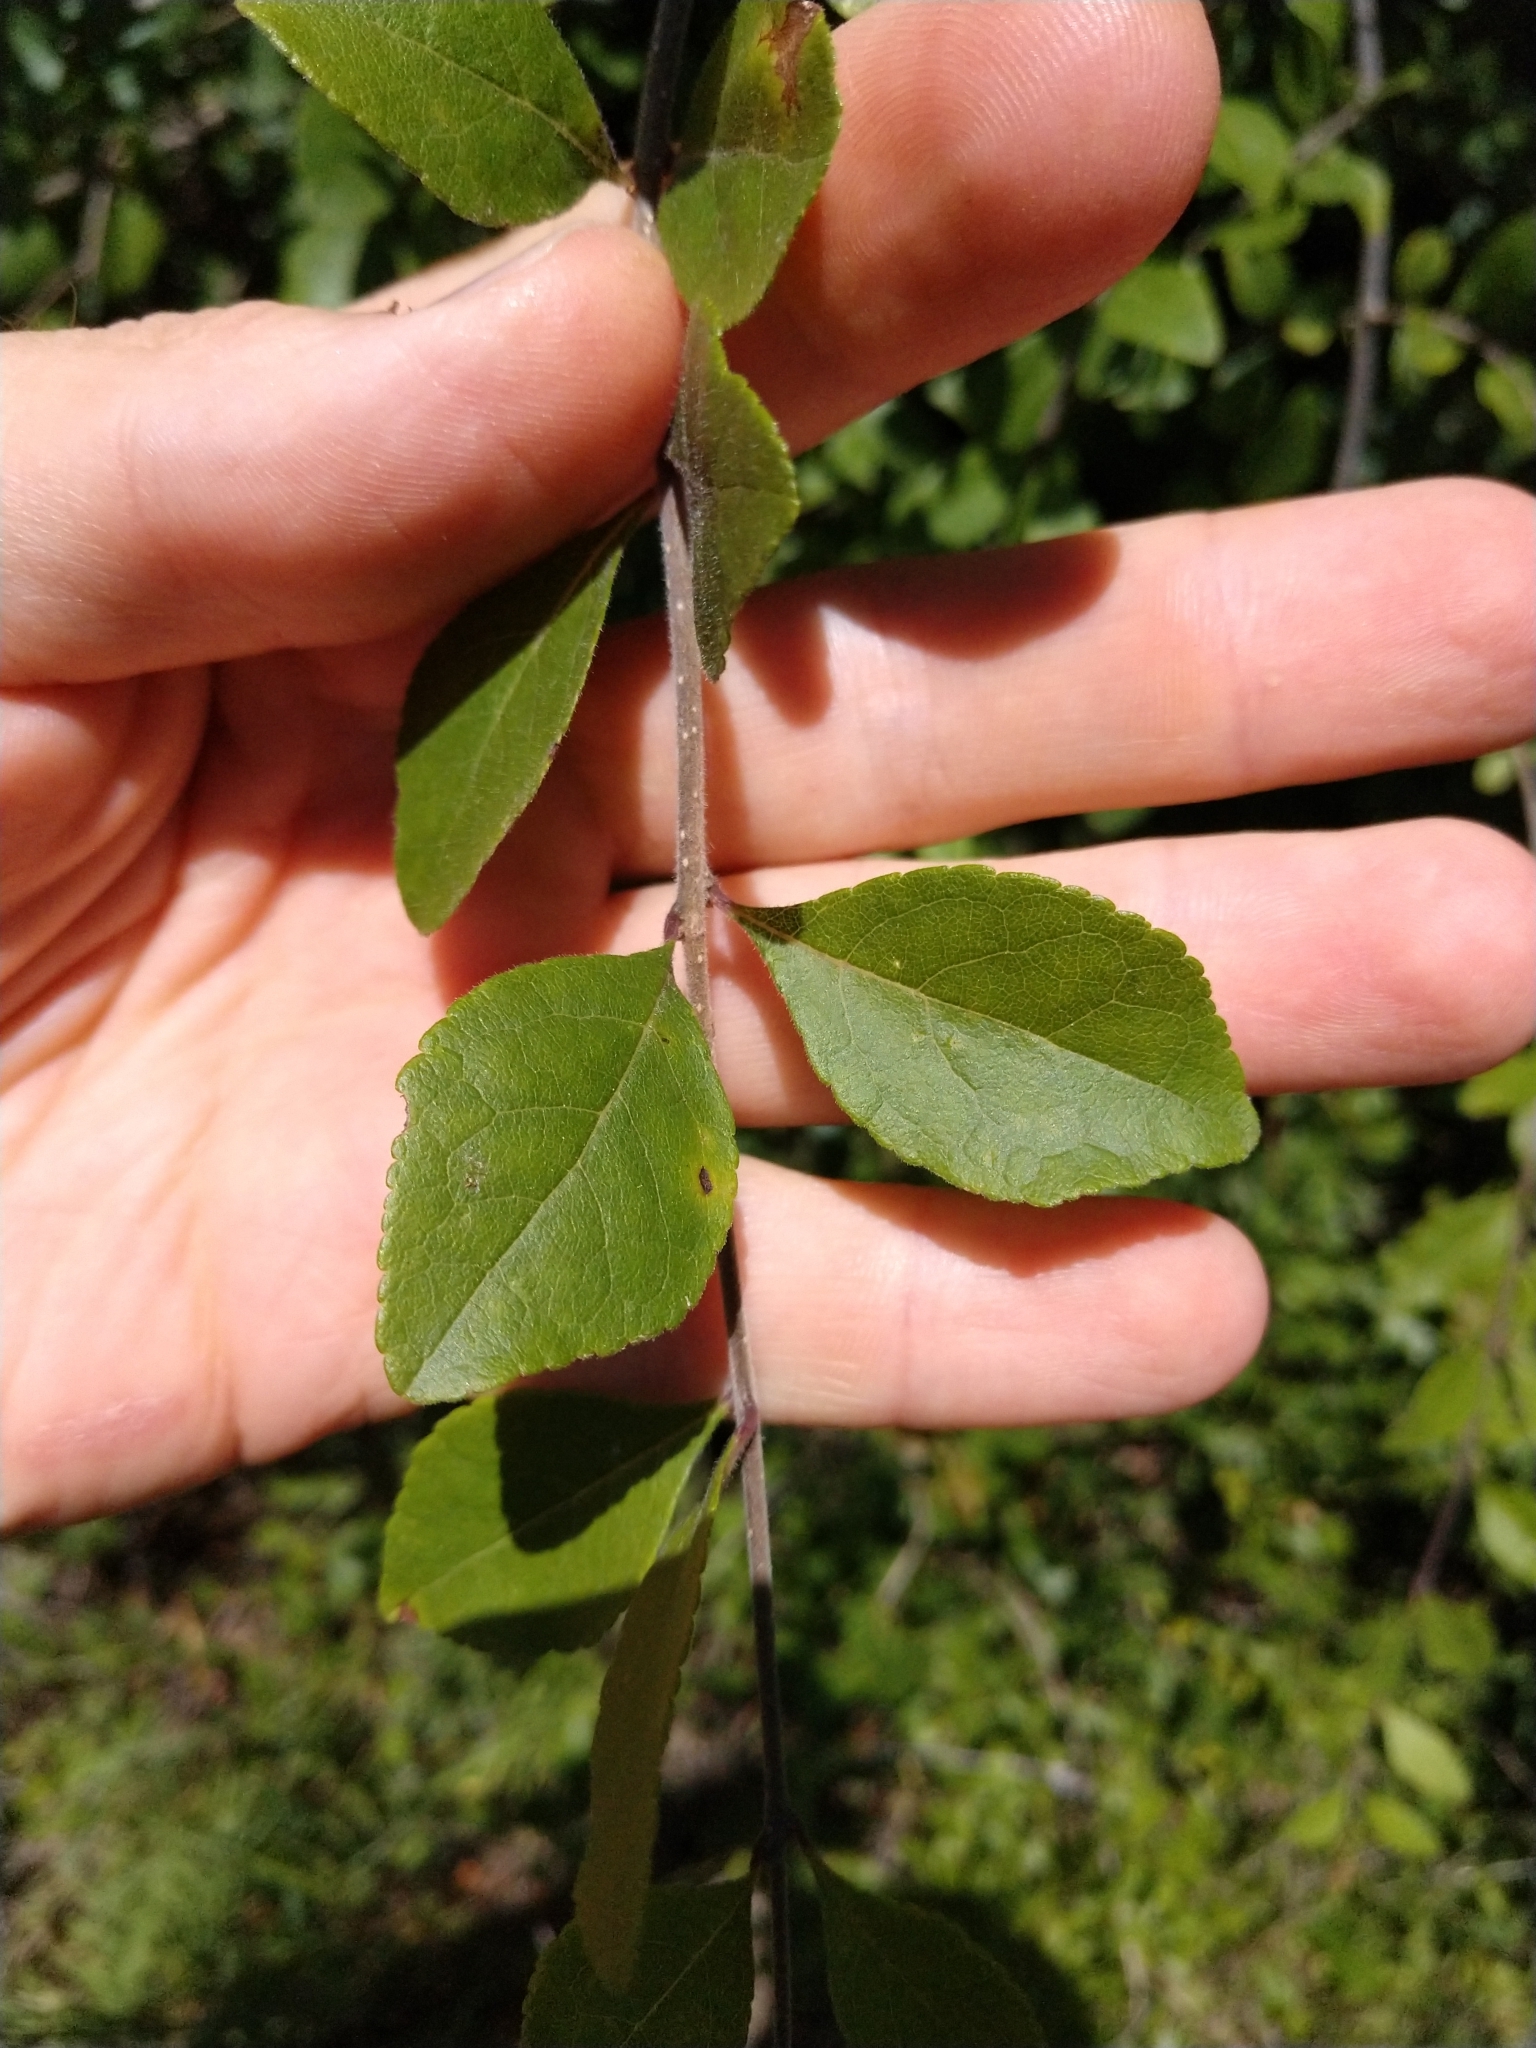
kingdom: Plantae
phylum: Tracheophyta
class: Magnoliopsida
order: Lamiales
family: Oleaceae
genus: Forestiera
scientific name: Forestiera pubescens
